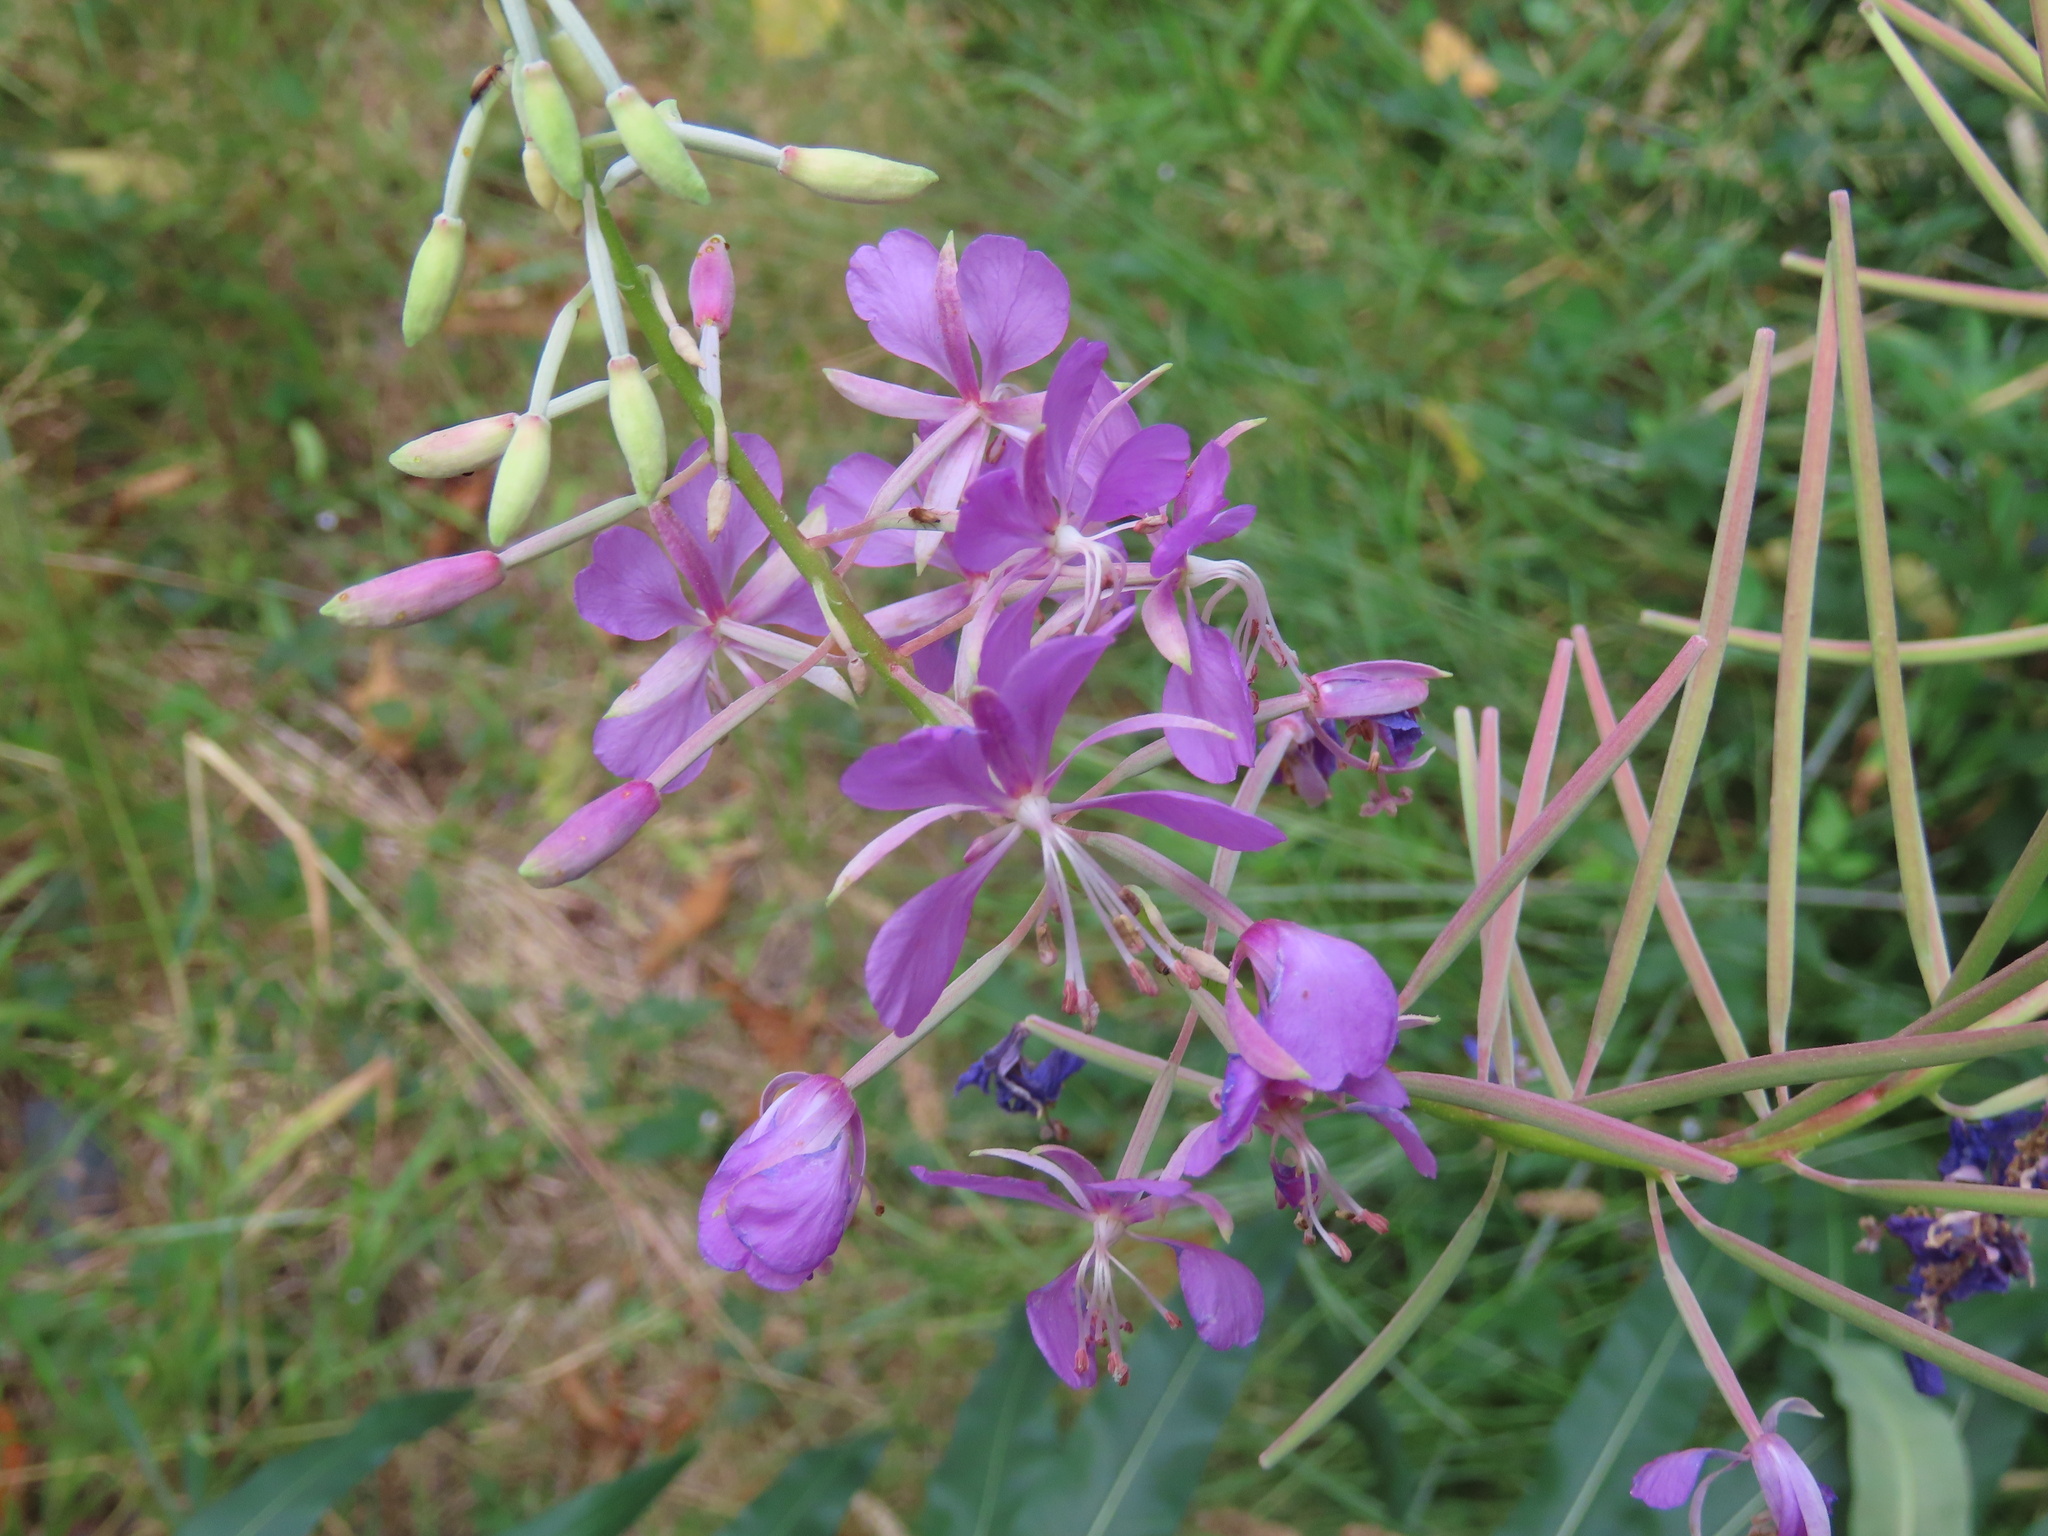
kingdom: Plantae
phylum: Tracheophyta
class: Magnoliopsida
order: Myrtales
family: Onagraceae
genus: Chamaenerion
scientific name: Chamaenerion angustifolium
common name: Fireweed
